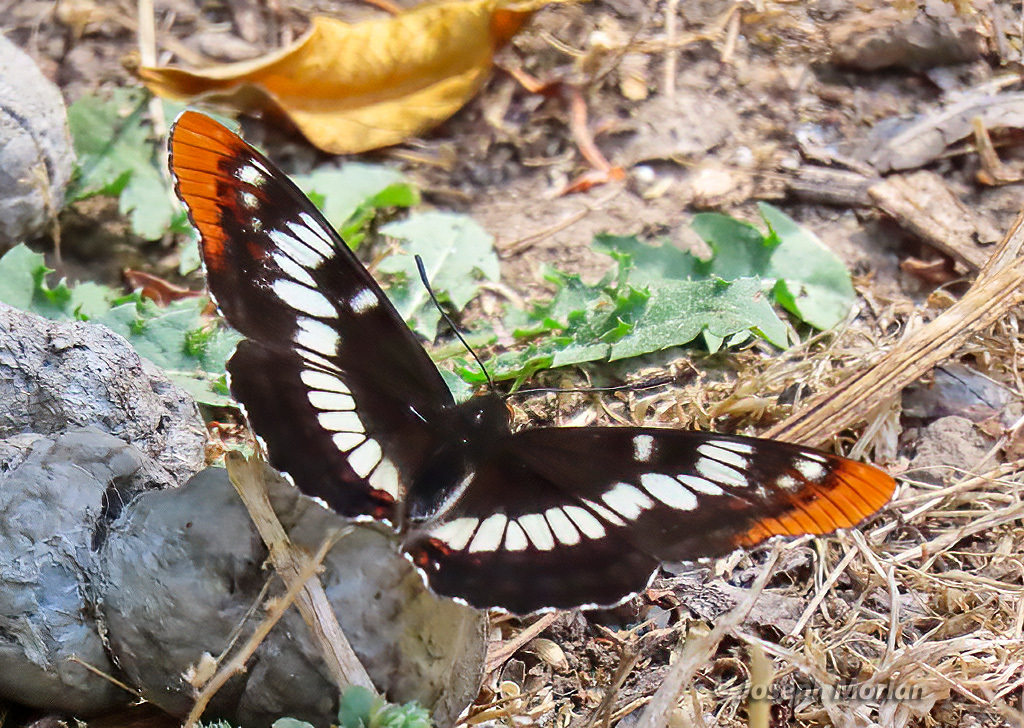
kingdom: Animalia
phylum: Arthropoda
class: Insecta
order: Lepidoptera
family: Nymphalidae
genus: Limenitis
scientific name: Limenitis lorquini
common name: Lorquin's admiral
